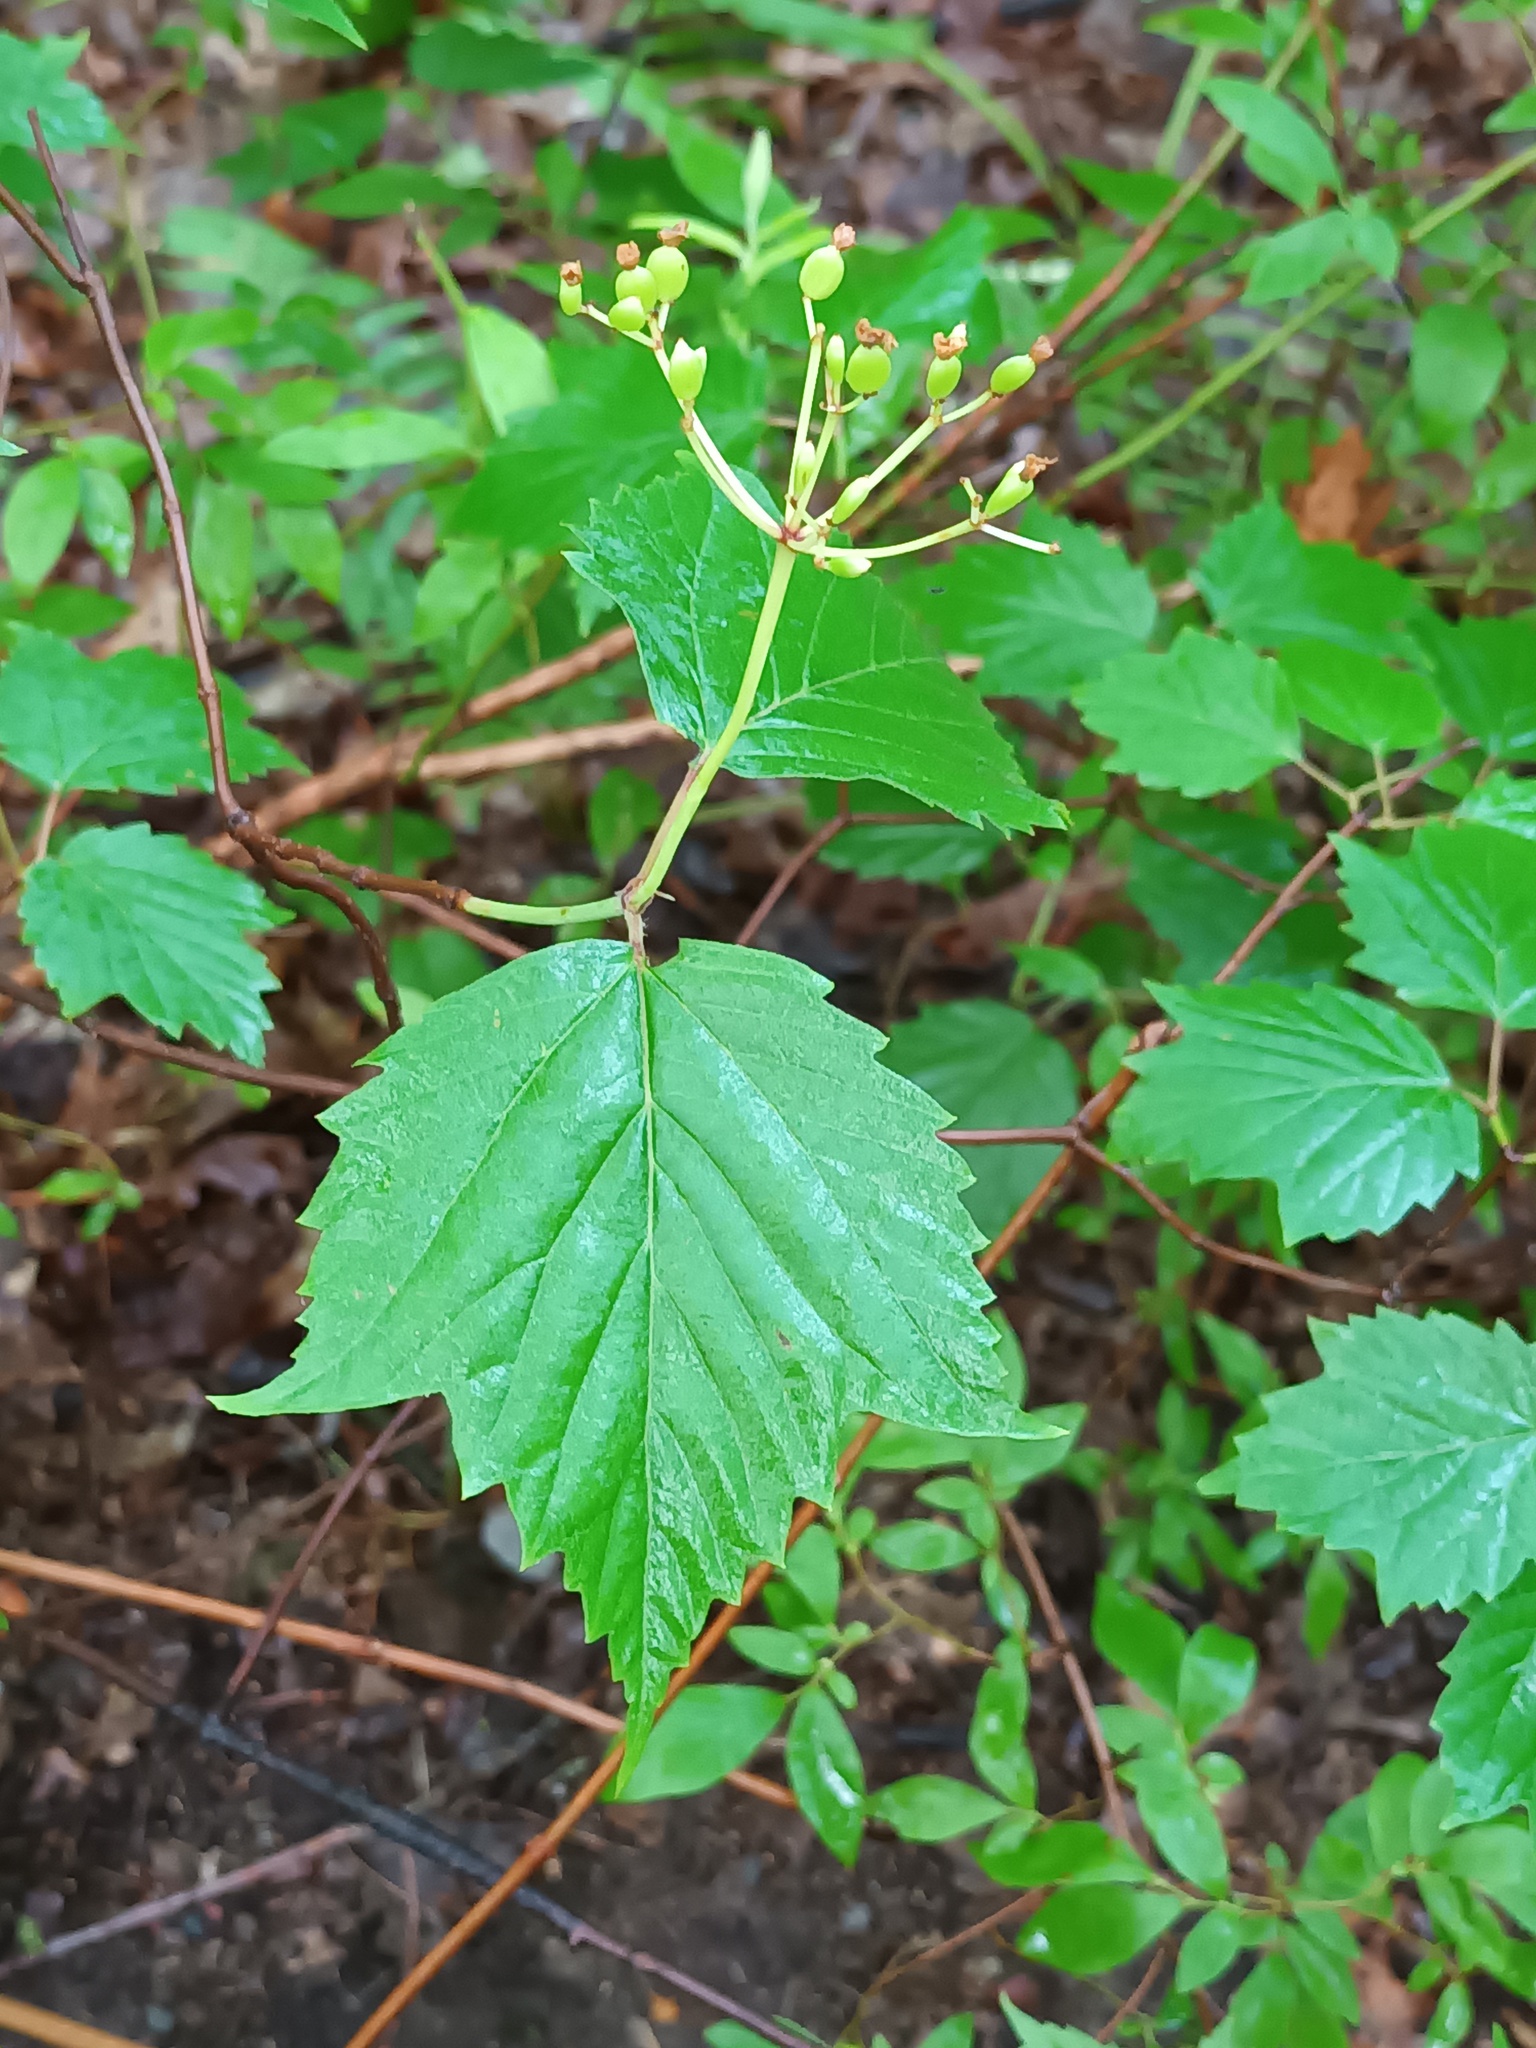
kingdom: Plantae
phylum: Tracheophyta
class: Magnoliopsida
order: Dipsacales
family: Viburnaceae
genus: Viburnum
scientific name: Viburnum acerifolium
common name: Dockmackie
